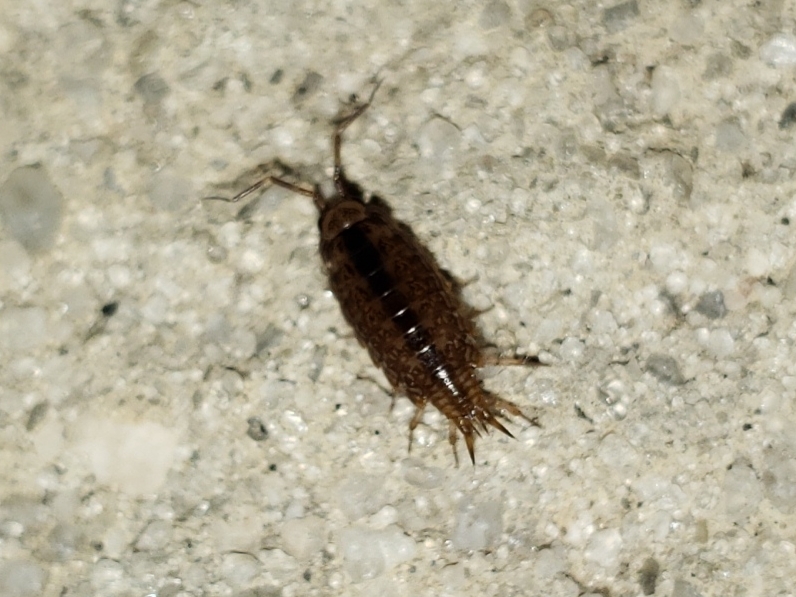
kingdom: Animalia
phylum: Arthropoda
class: Malacostraca
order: Isopoda
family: Philosciidae
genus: Atlantoscia
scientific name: Atlantoscia floridana
